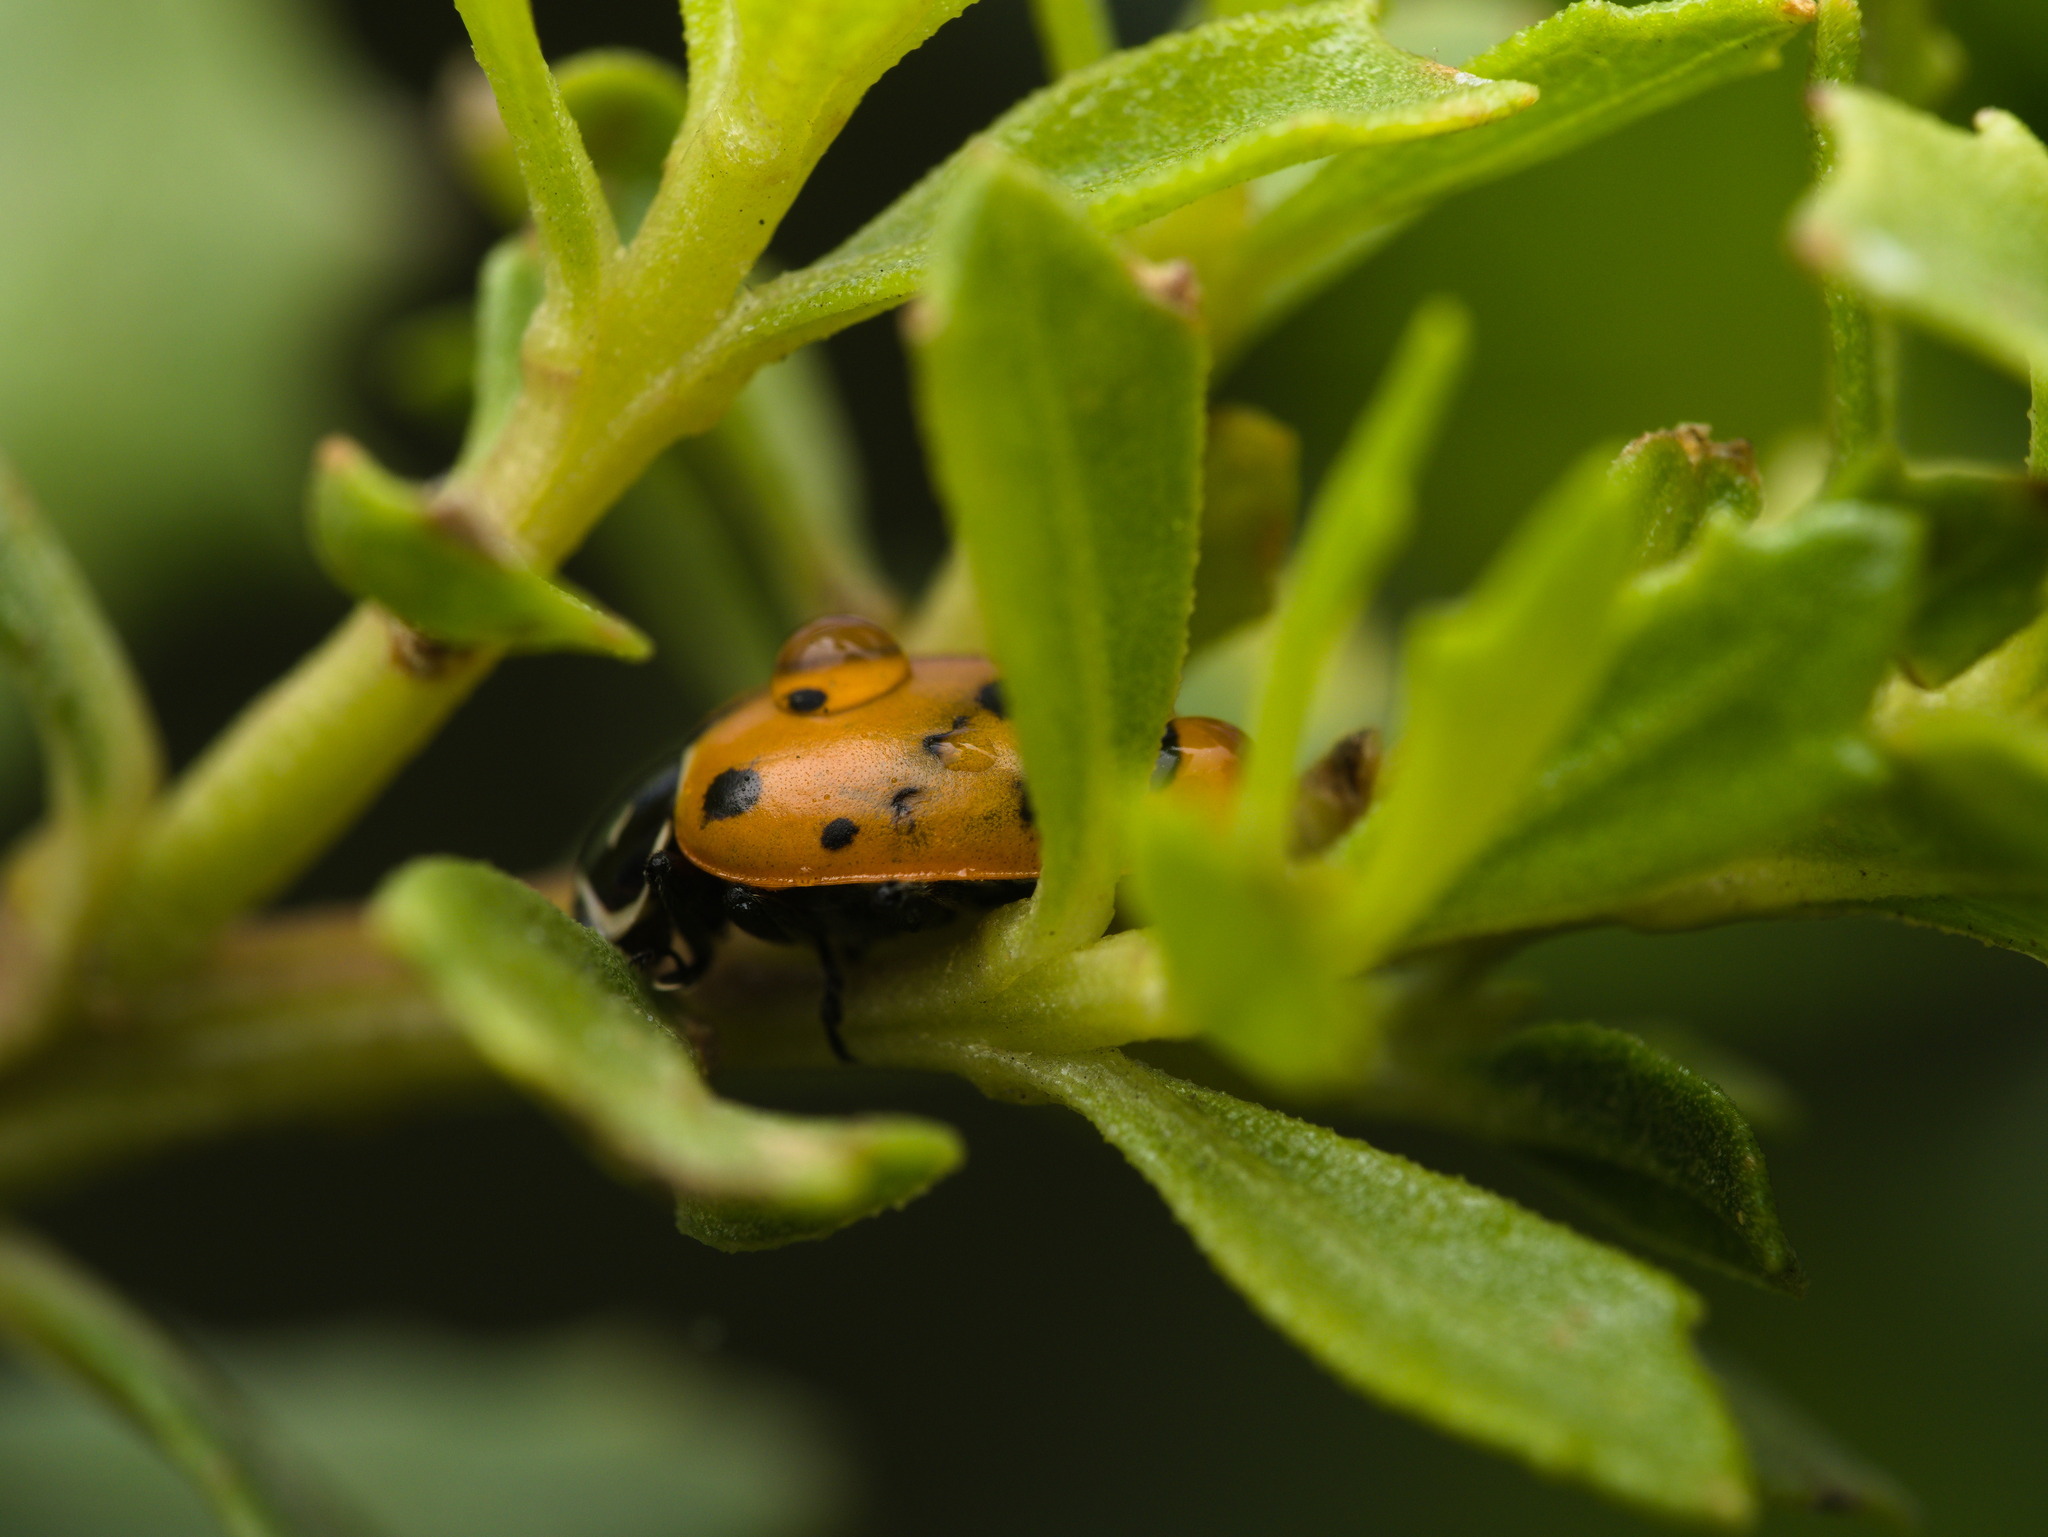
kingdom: Animalia
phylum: Arthropoda
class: Insecta
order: Coleoptera
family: Coccinellidae
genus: Hippodamia
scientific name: Hippodamia convergens
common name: Convergent lady beetle
